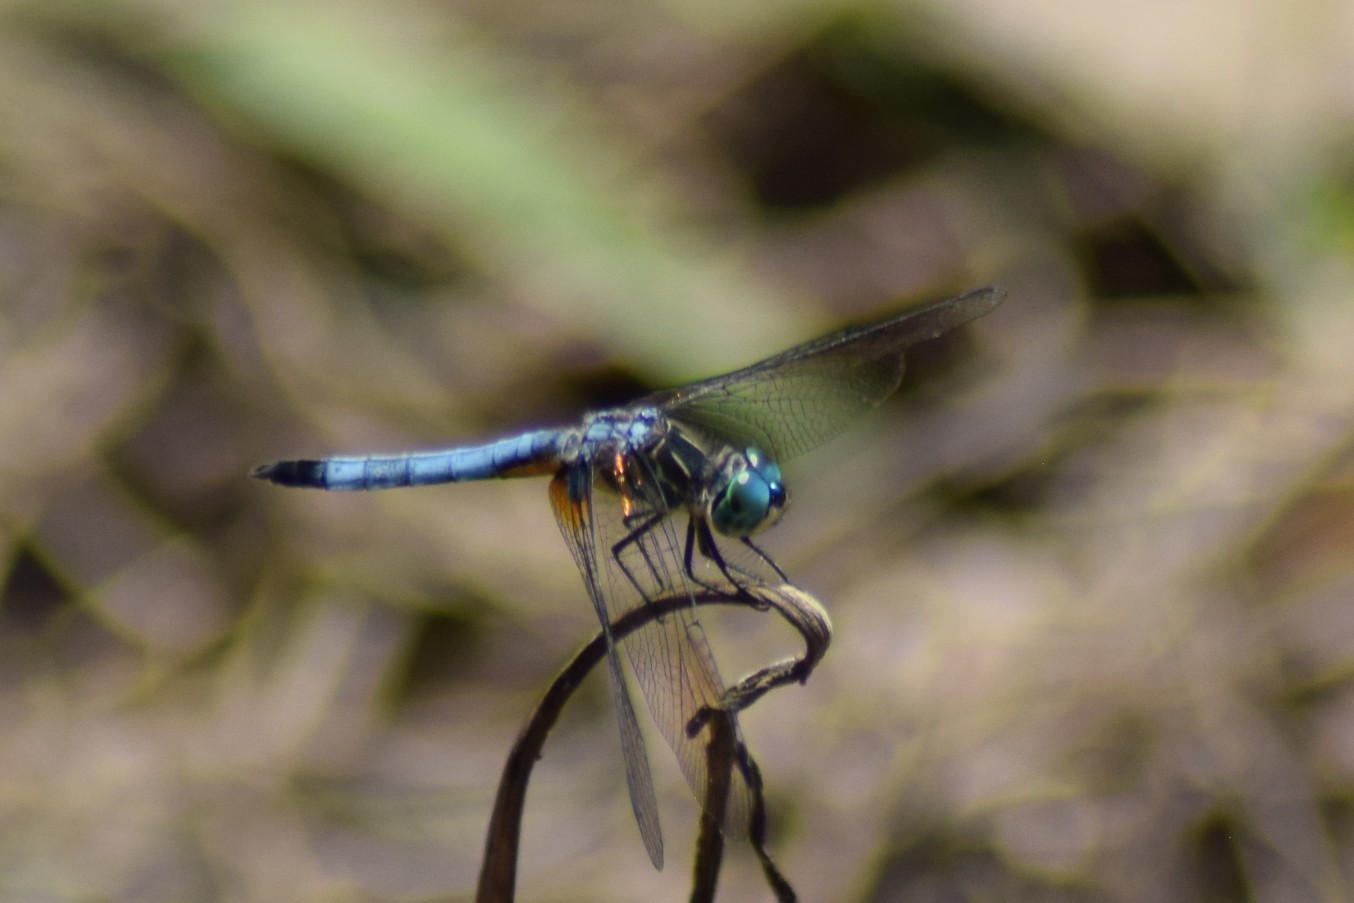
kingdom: Animalia
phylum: Arthropoda
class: Insecta
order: Odonata
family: Libellulidae
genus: Pachydiplax
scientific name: Pachydiplax longipennis
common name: Blue dasher
